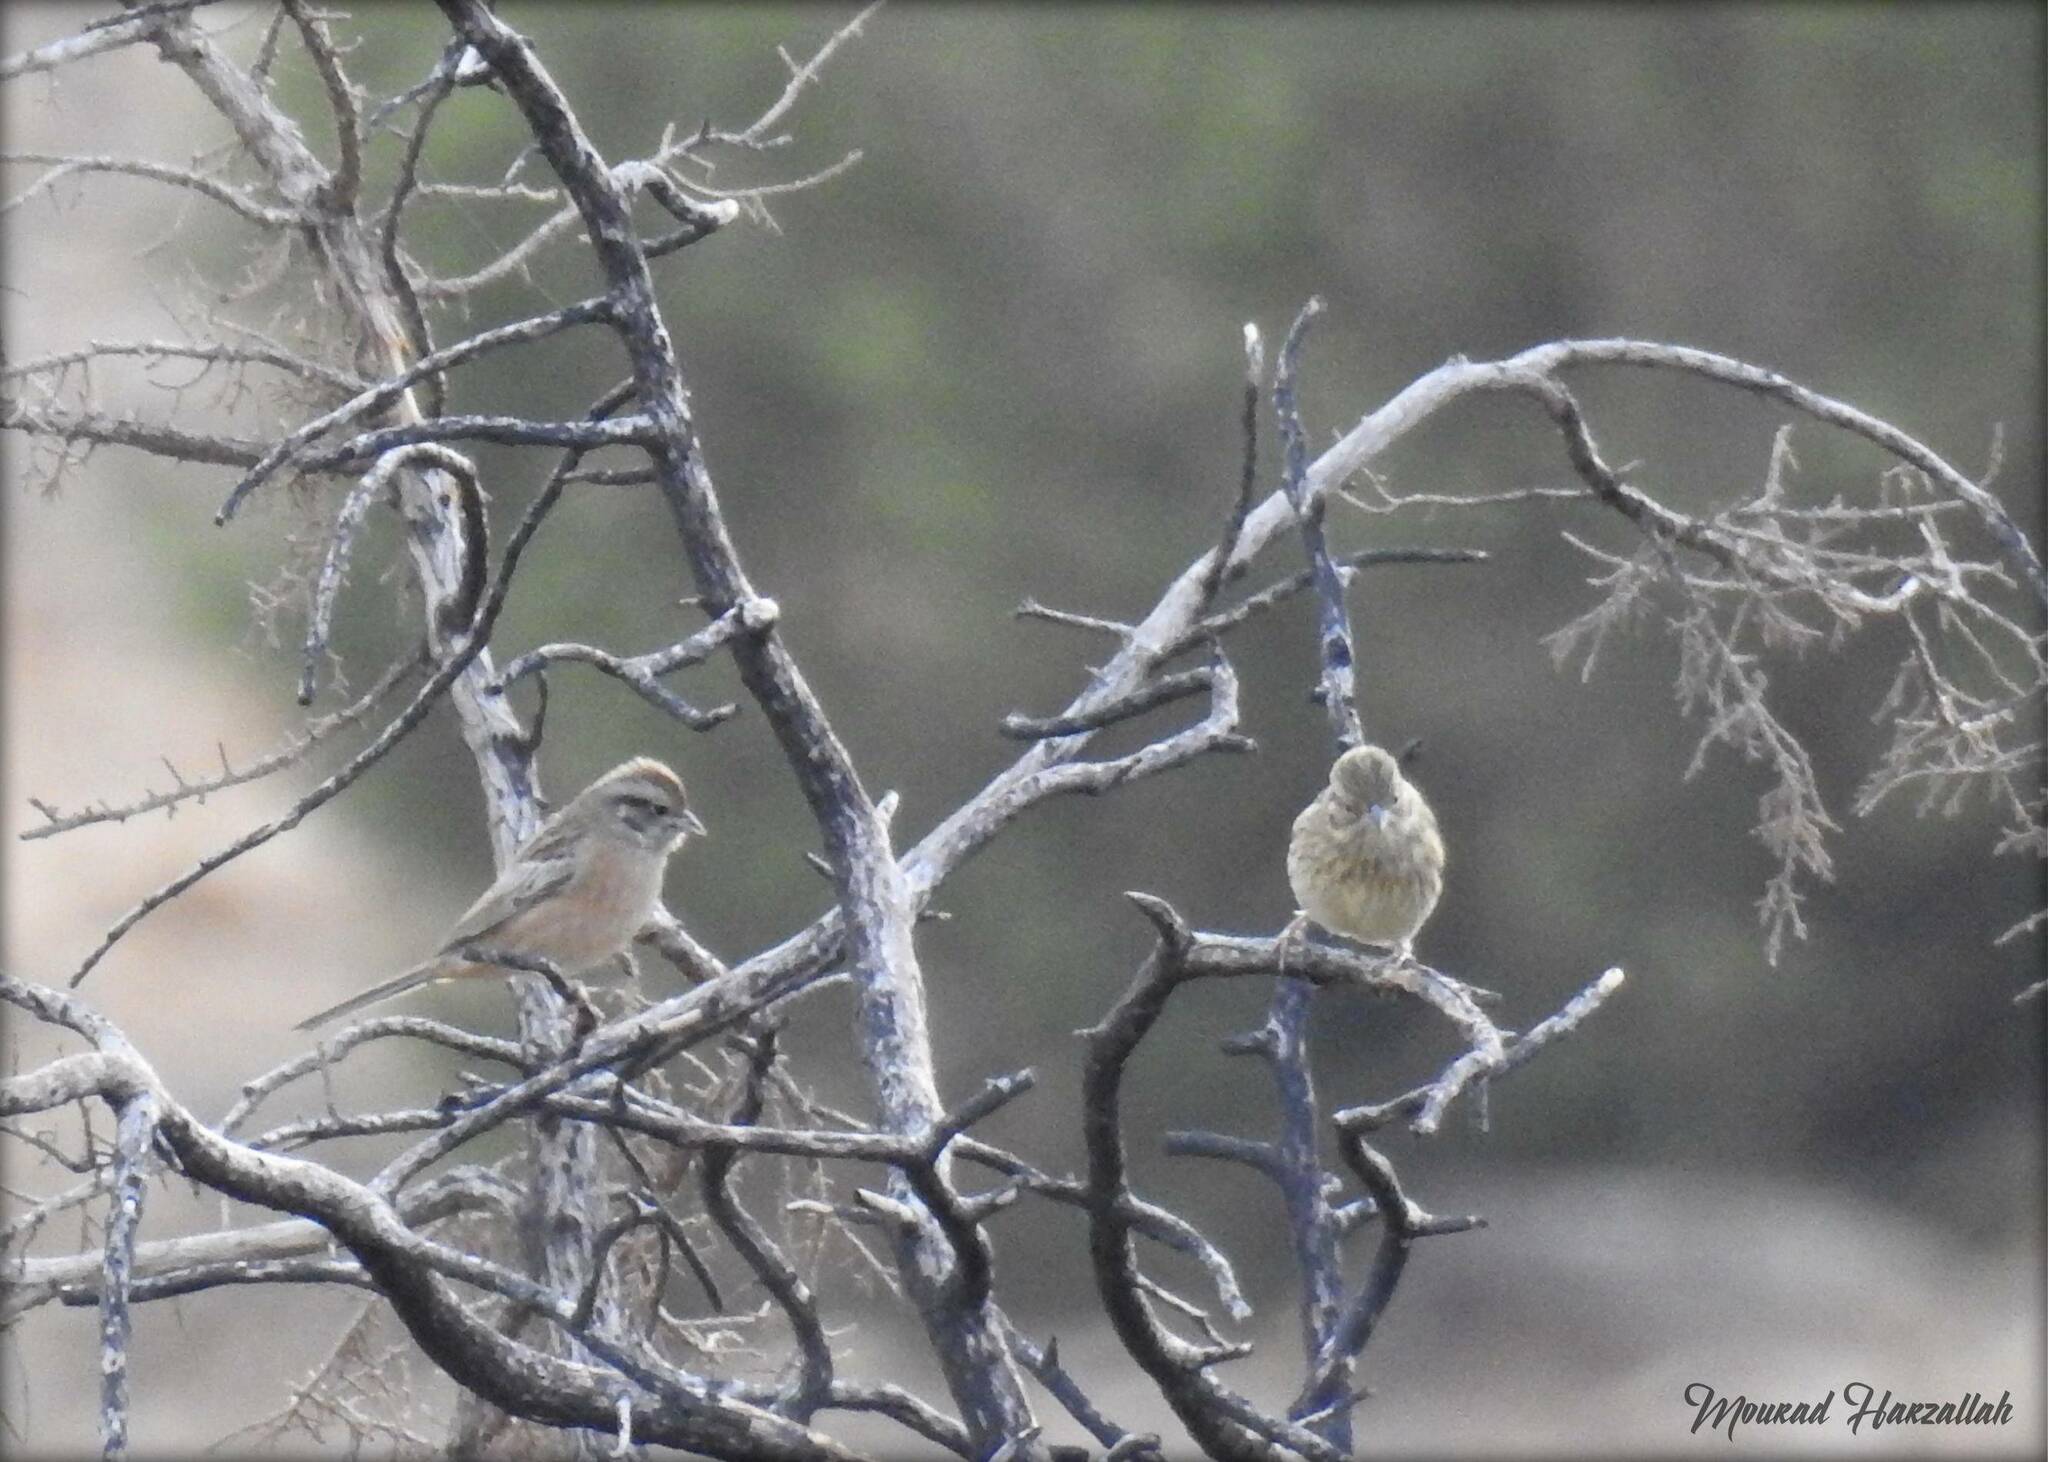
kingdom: Animalia
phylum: Chordata
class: Aves
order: Passeriformes
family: Emberizidae
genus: Emberiza
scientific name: Emberiza cia
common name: Rock bunting
